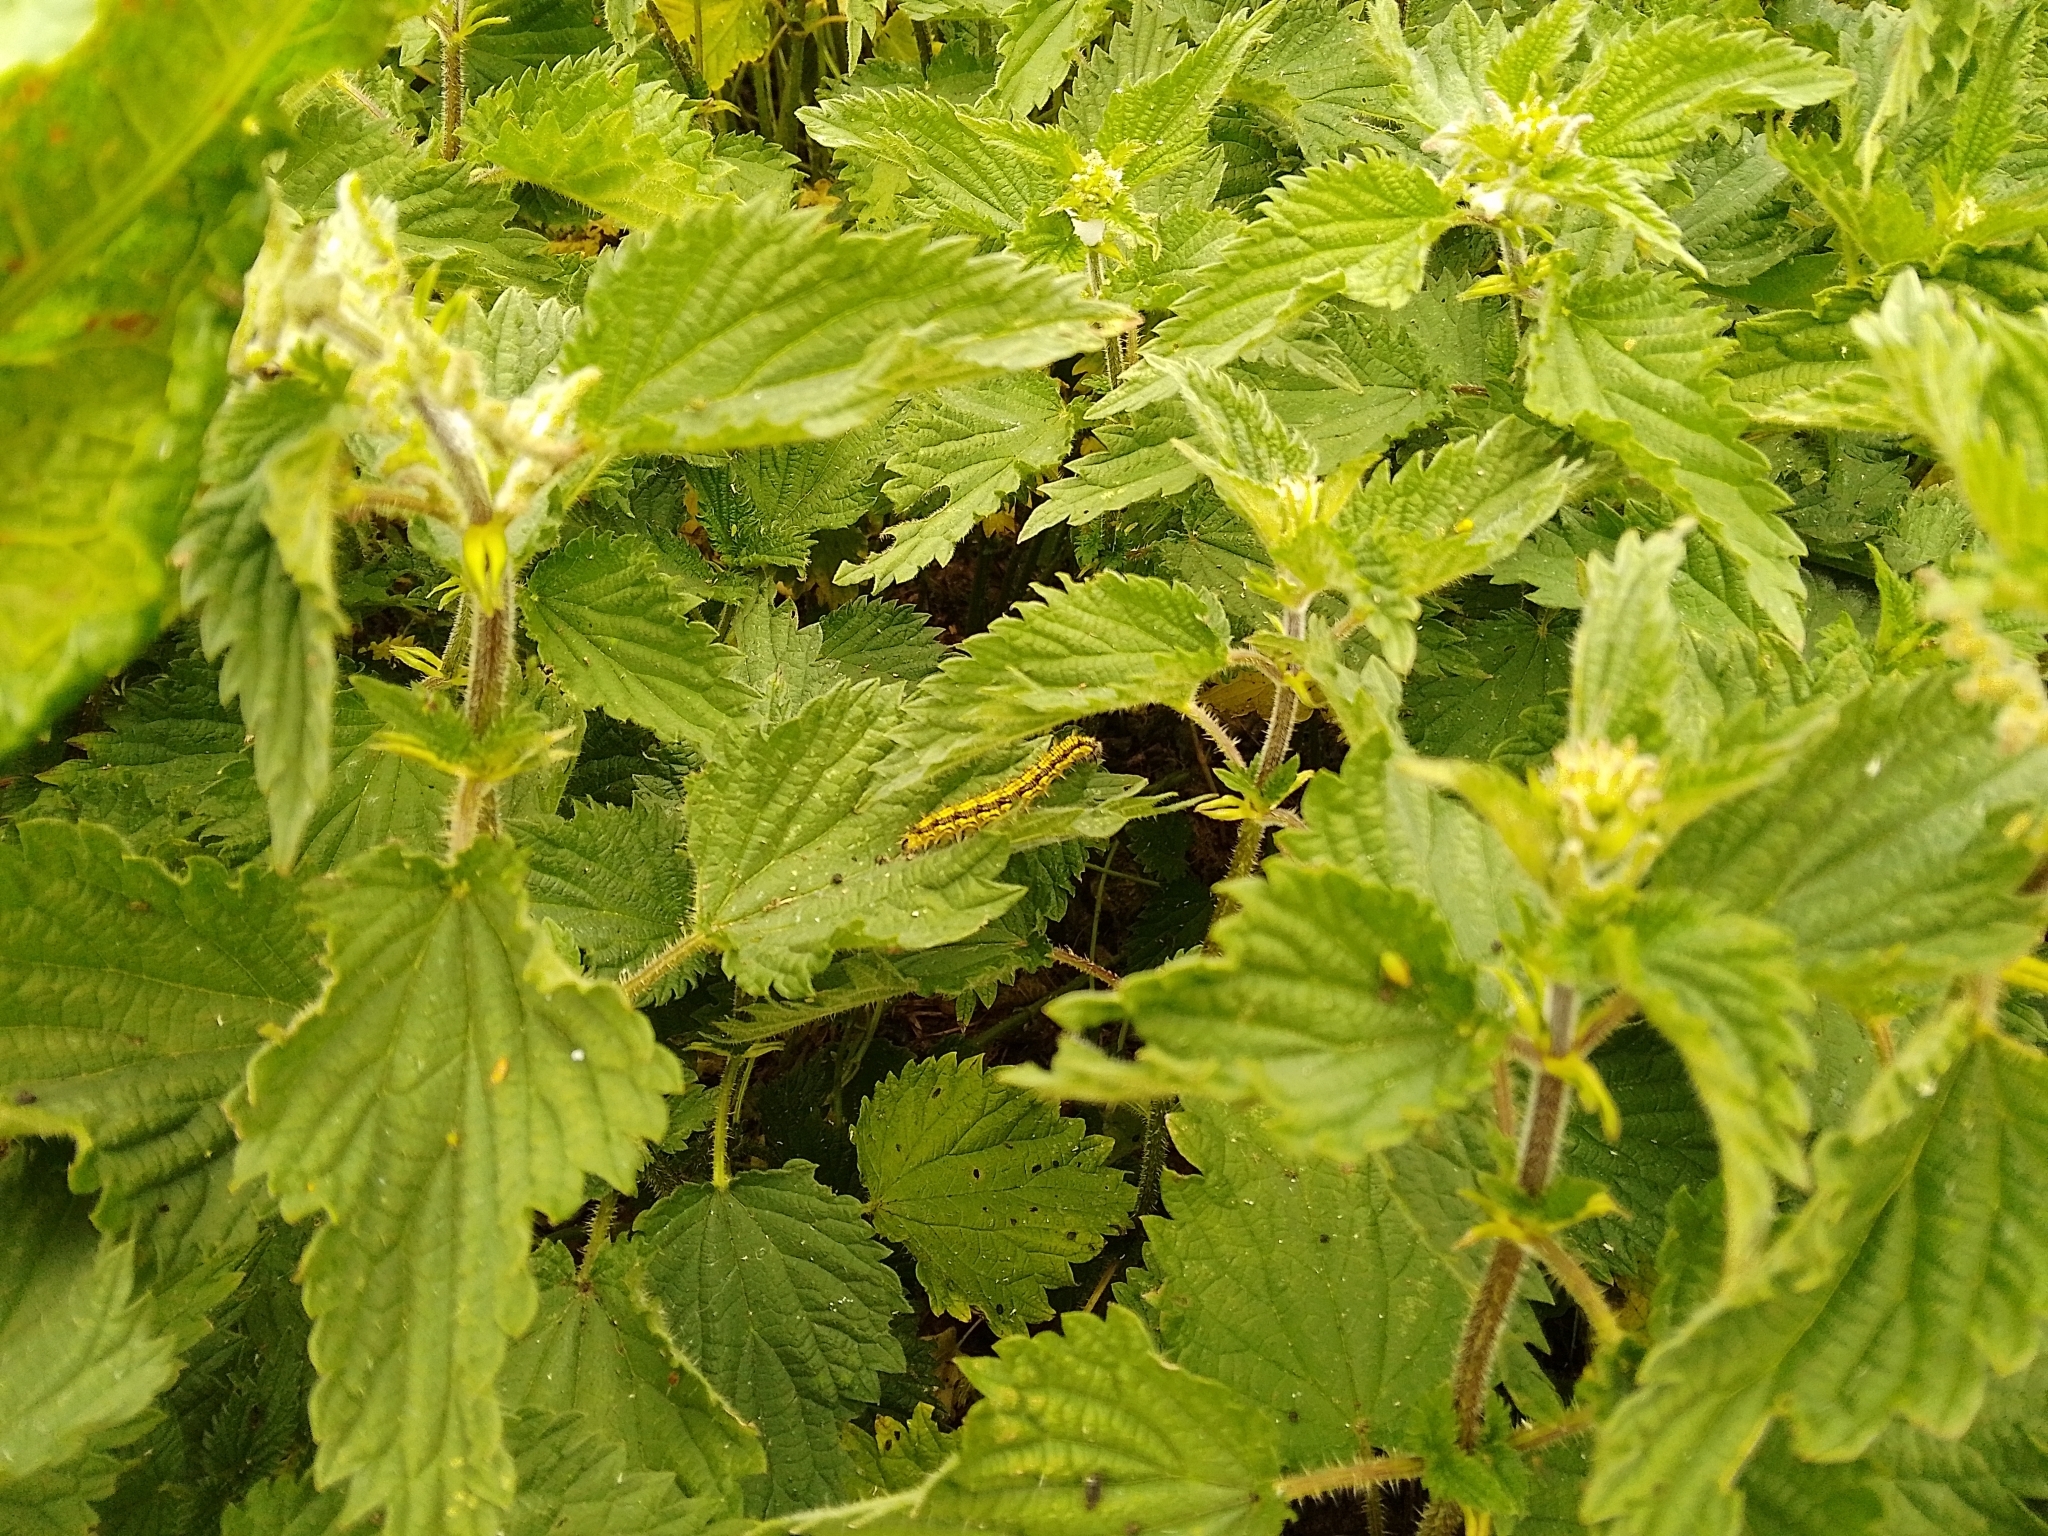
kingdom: Animalia
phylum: Arthropoda
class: Insecta
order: Lepidoptera
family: Nymphalidae
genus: Aglais
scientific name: Aglais urticae
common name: Small tortoiseshell
